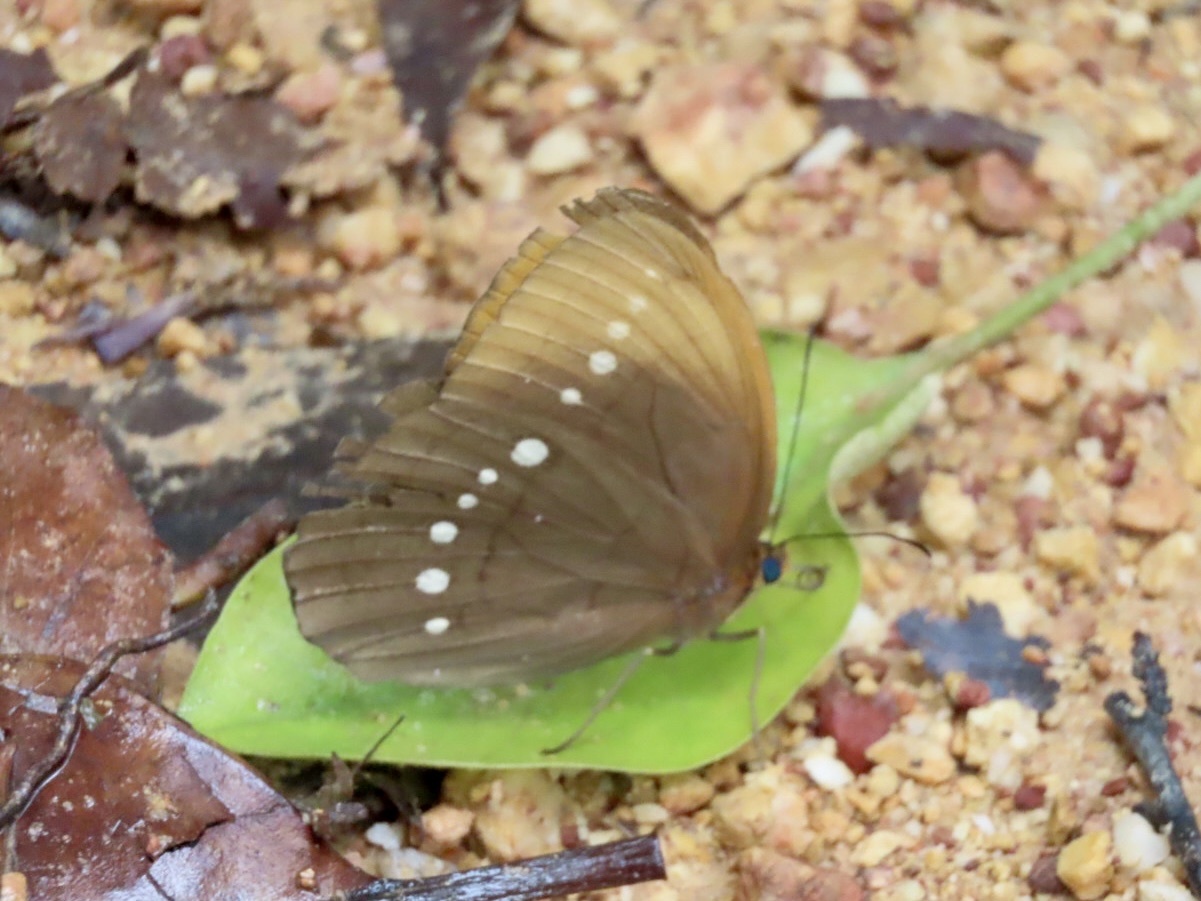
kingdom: Animalia
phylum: Arthropoda
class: Insecta
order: Lepidoptera
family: Nymphalidae
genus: Faunis
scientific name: Faunis eumeus
